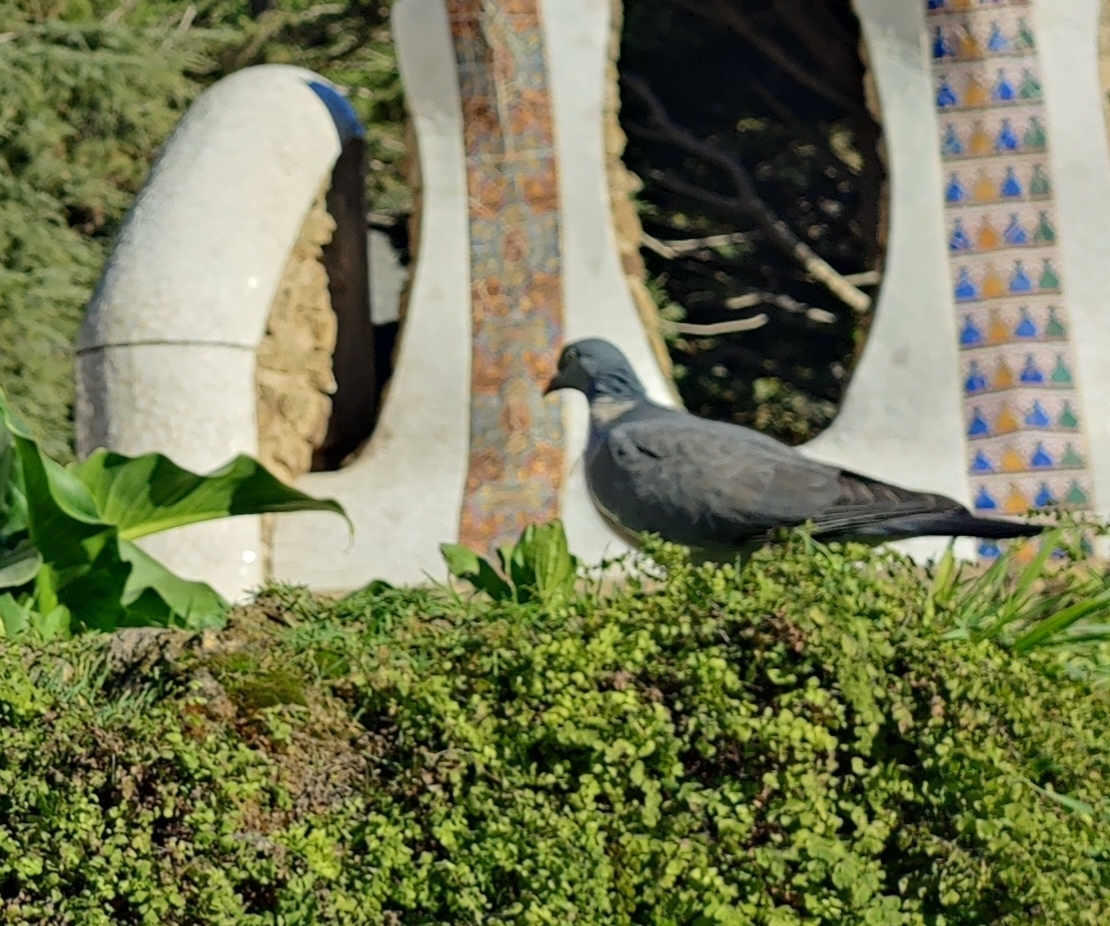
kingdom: Animalia
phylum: Chordata
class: Aves
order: Columbiformes
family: Columbidae
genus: Columba
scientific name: Columba palumbus
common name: Common wood pigeon
